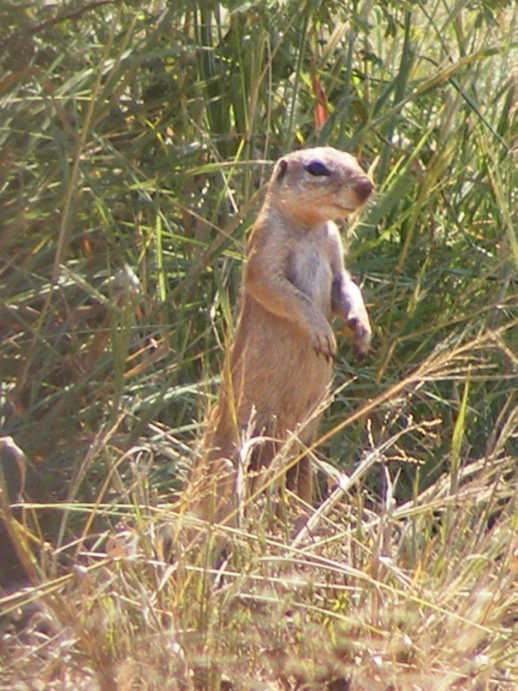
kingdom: Animalia
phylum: Chordata
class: Mammalia
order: Rodentia
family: Sciuridae
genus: Xerus
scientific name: Xerus inauris
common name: South african ground squirrel
